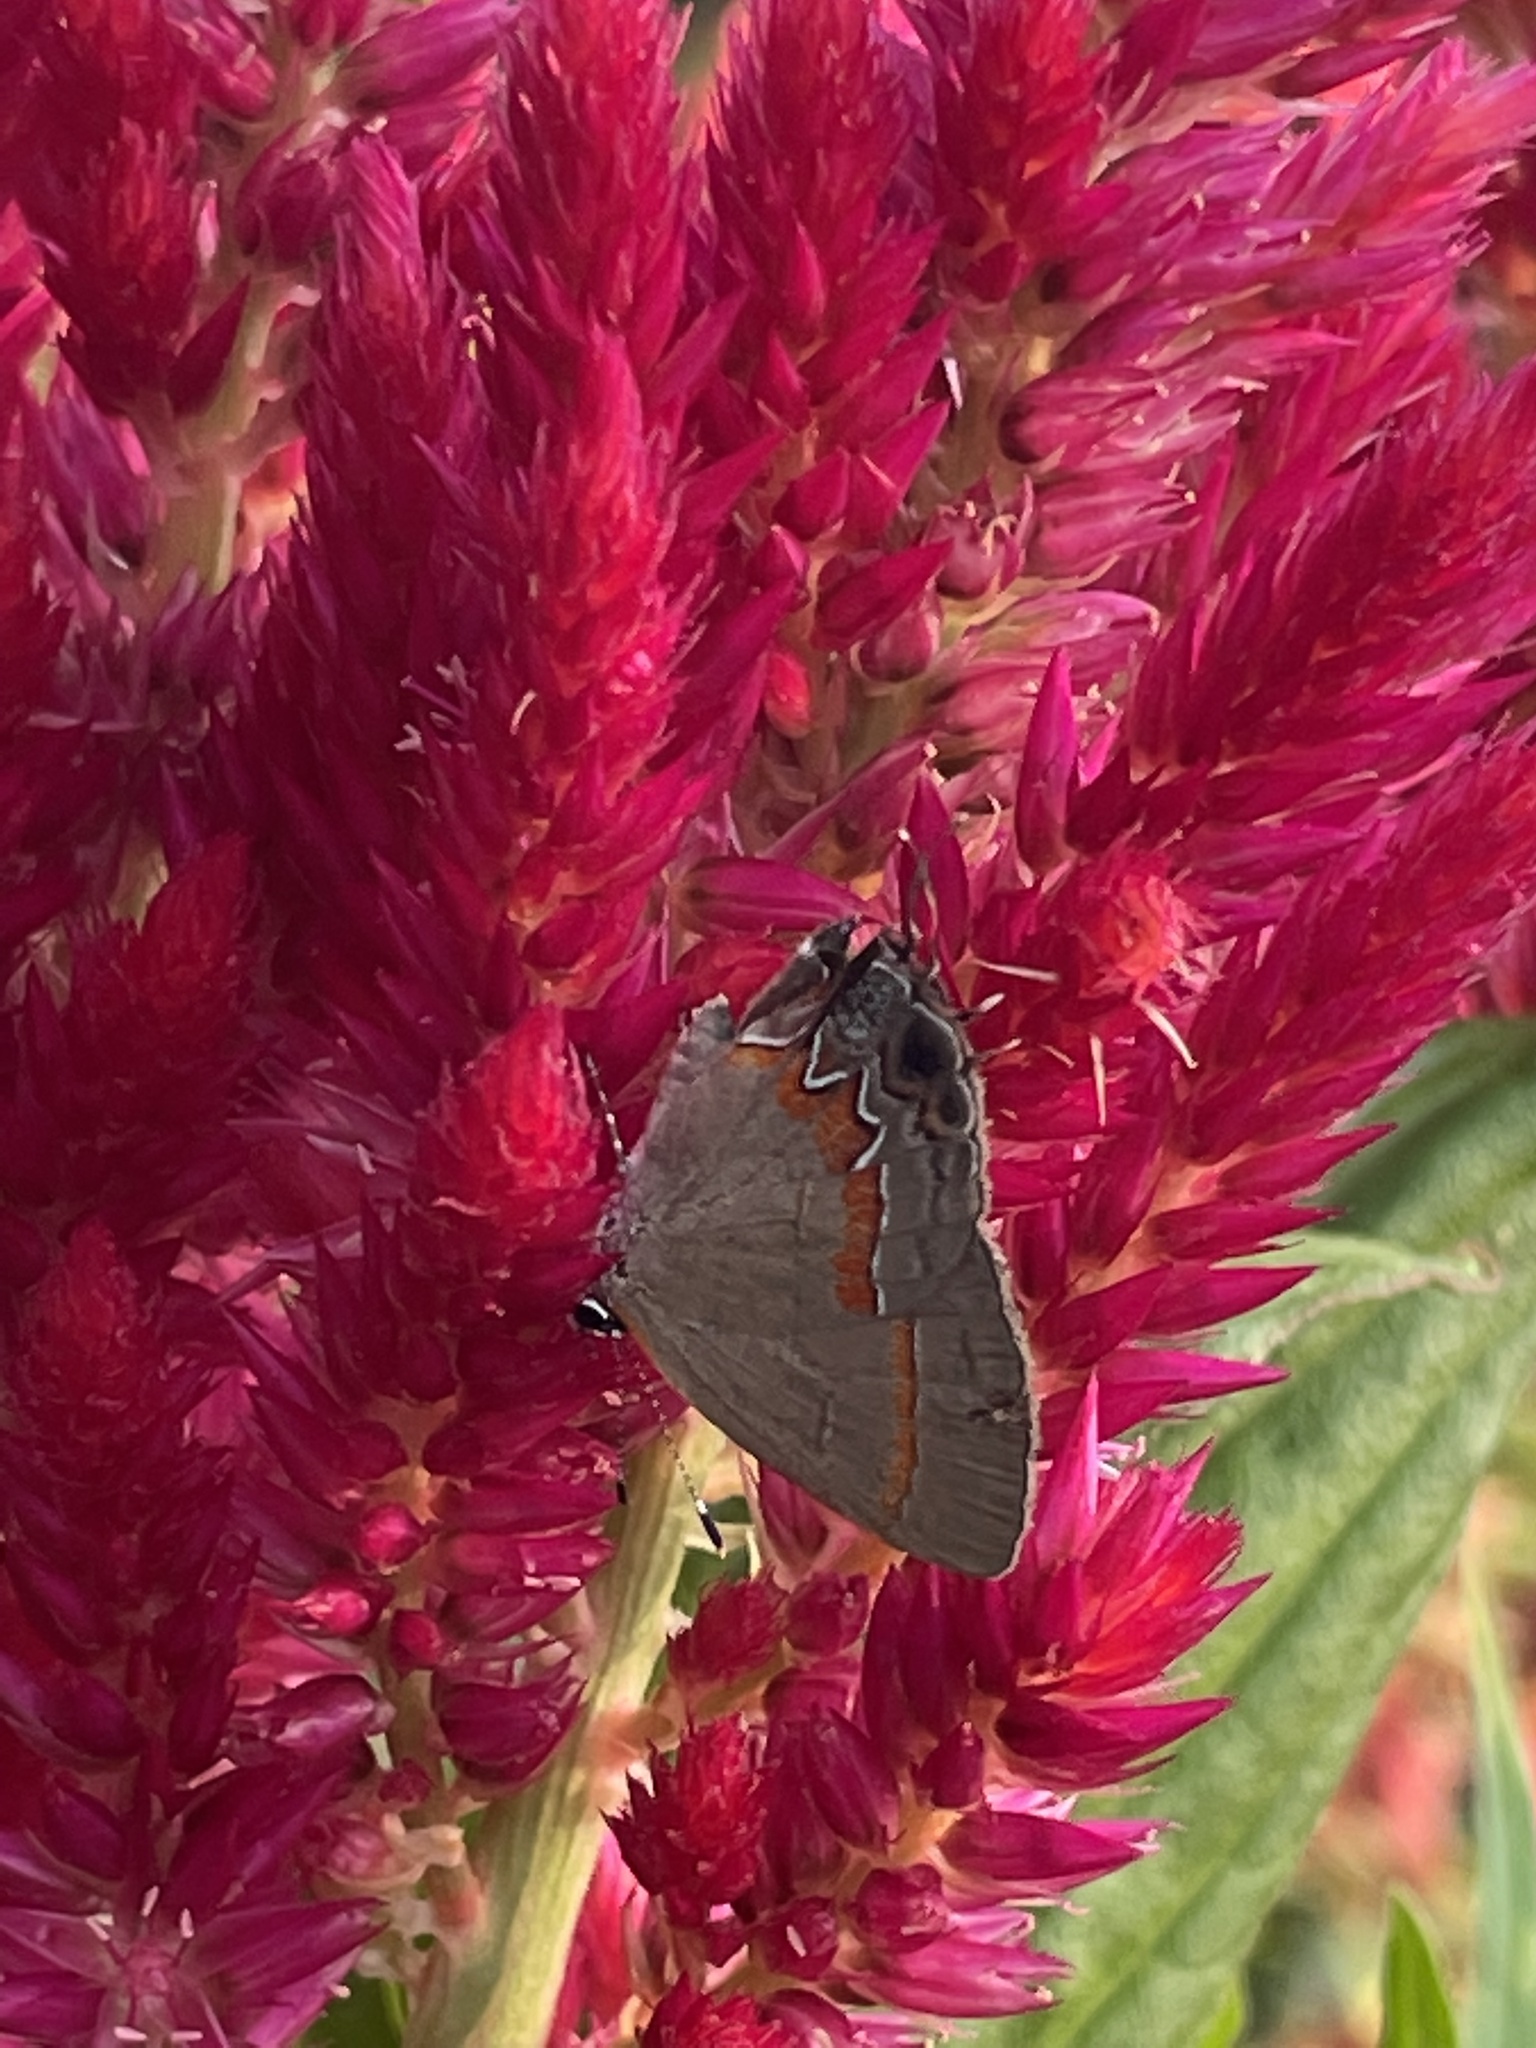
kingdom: Animalia
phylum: Arthropoda
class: Insecta
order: Lepidoptera
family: Lycaenidae
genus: Calycopis
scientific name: Calycopis cecrops
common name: Red-banded hairstreak
